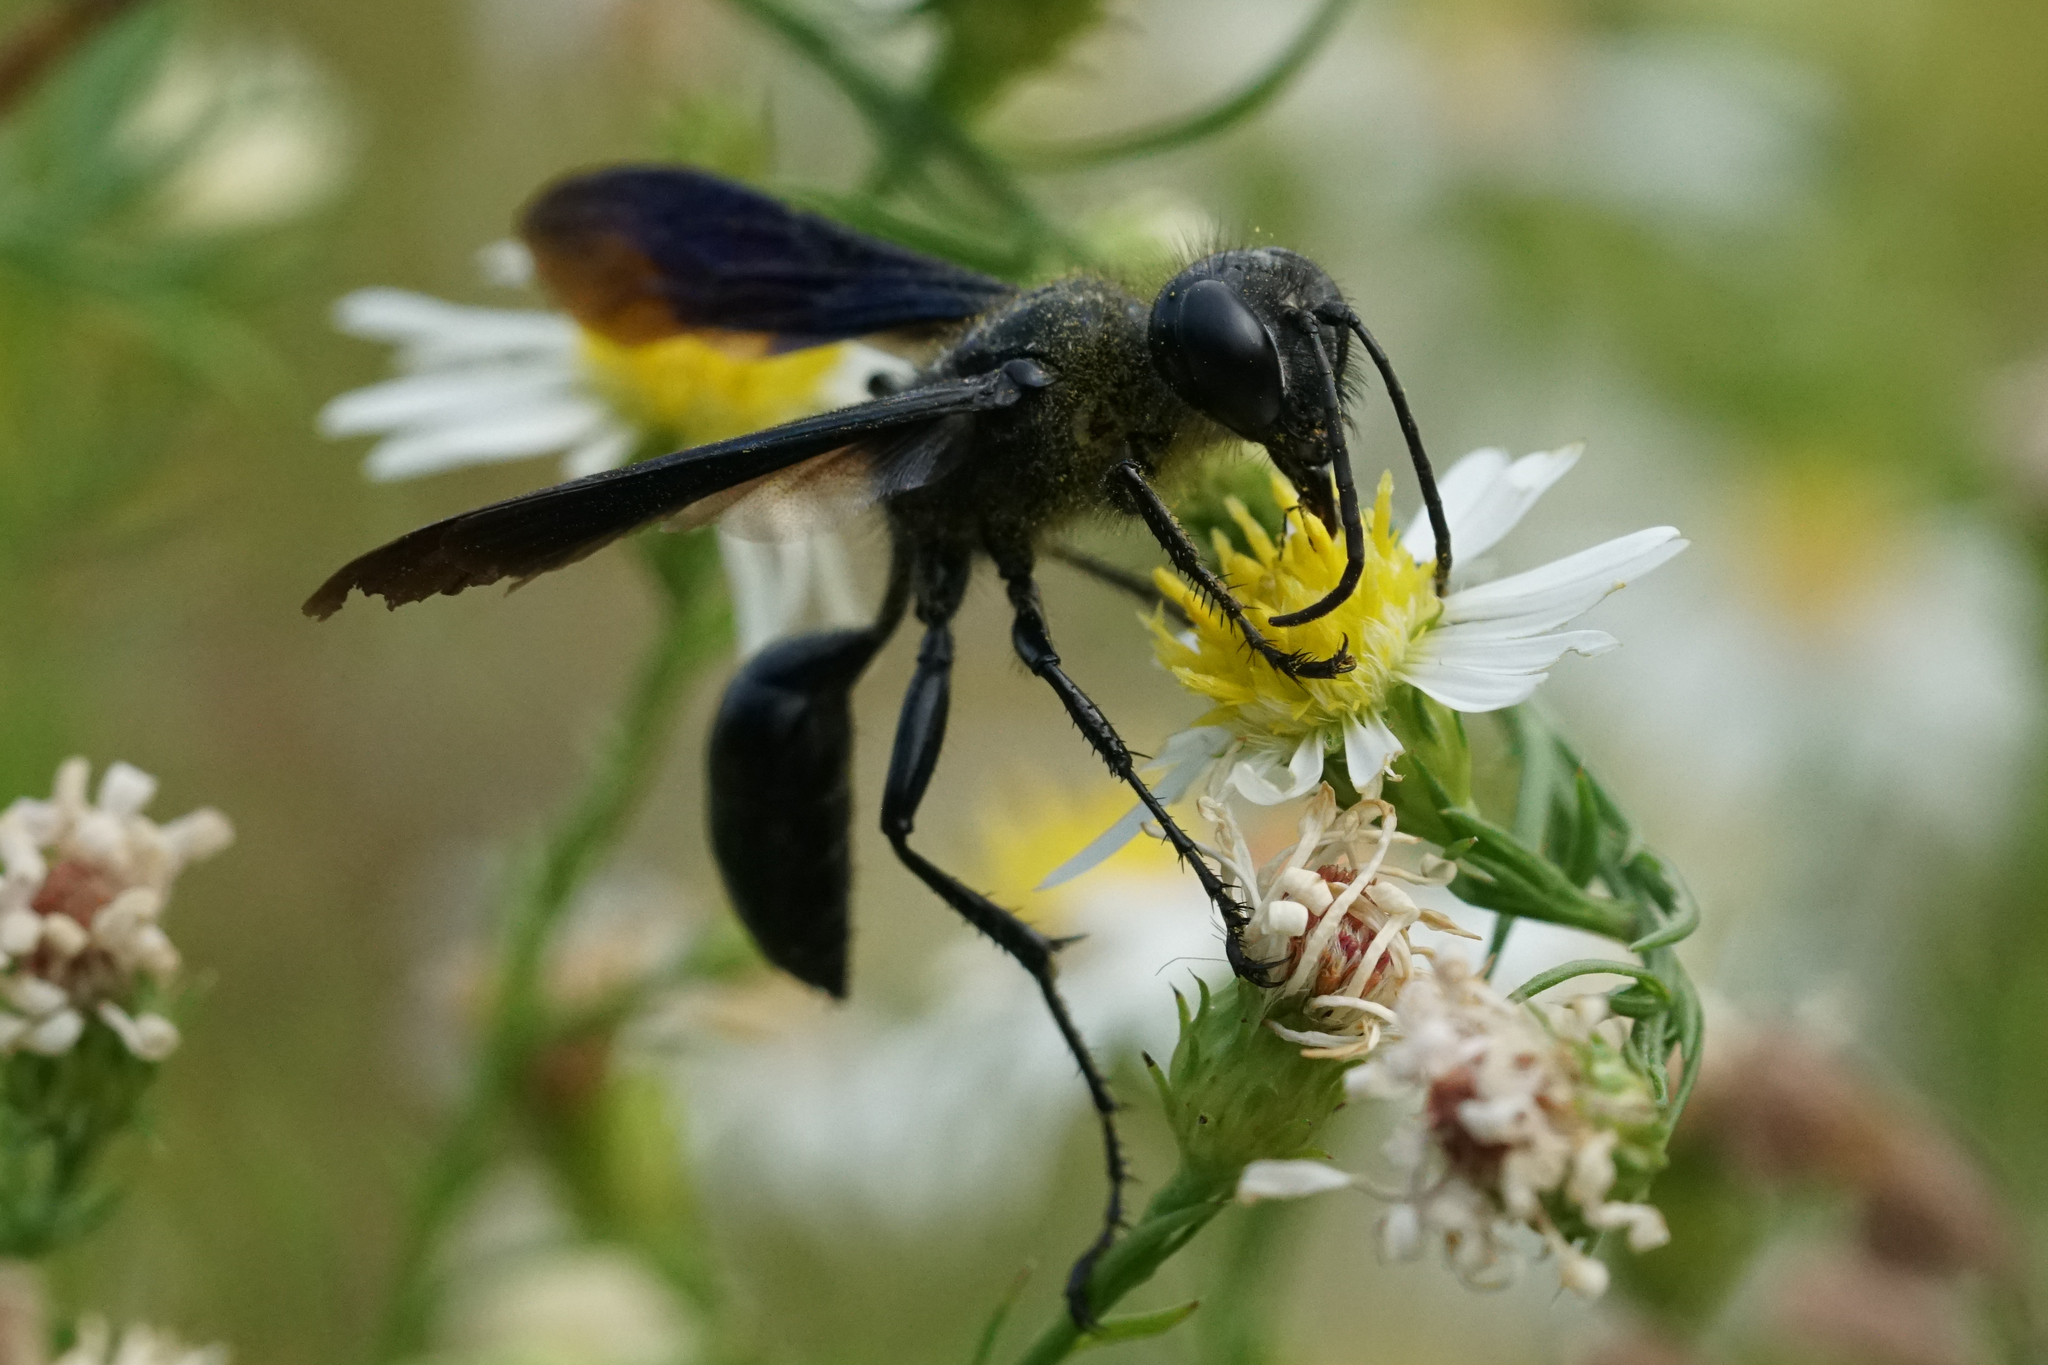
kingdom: Animalia
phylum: Arthropoda
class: Insecta
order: Hymenoptera
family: Sphecidae
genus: Isodontia
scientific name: Isodontia philadelphica
